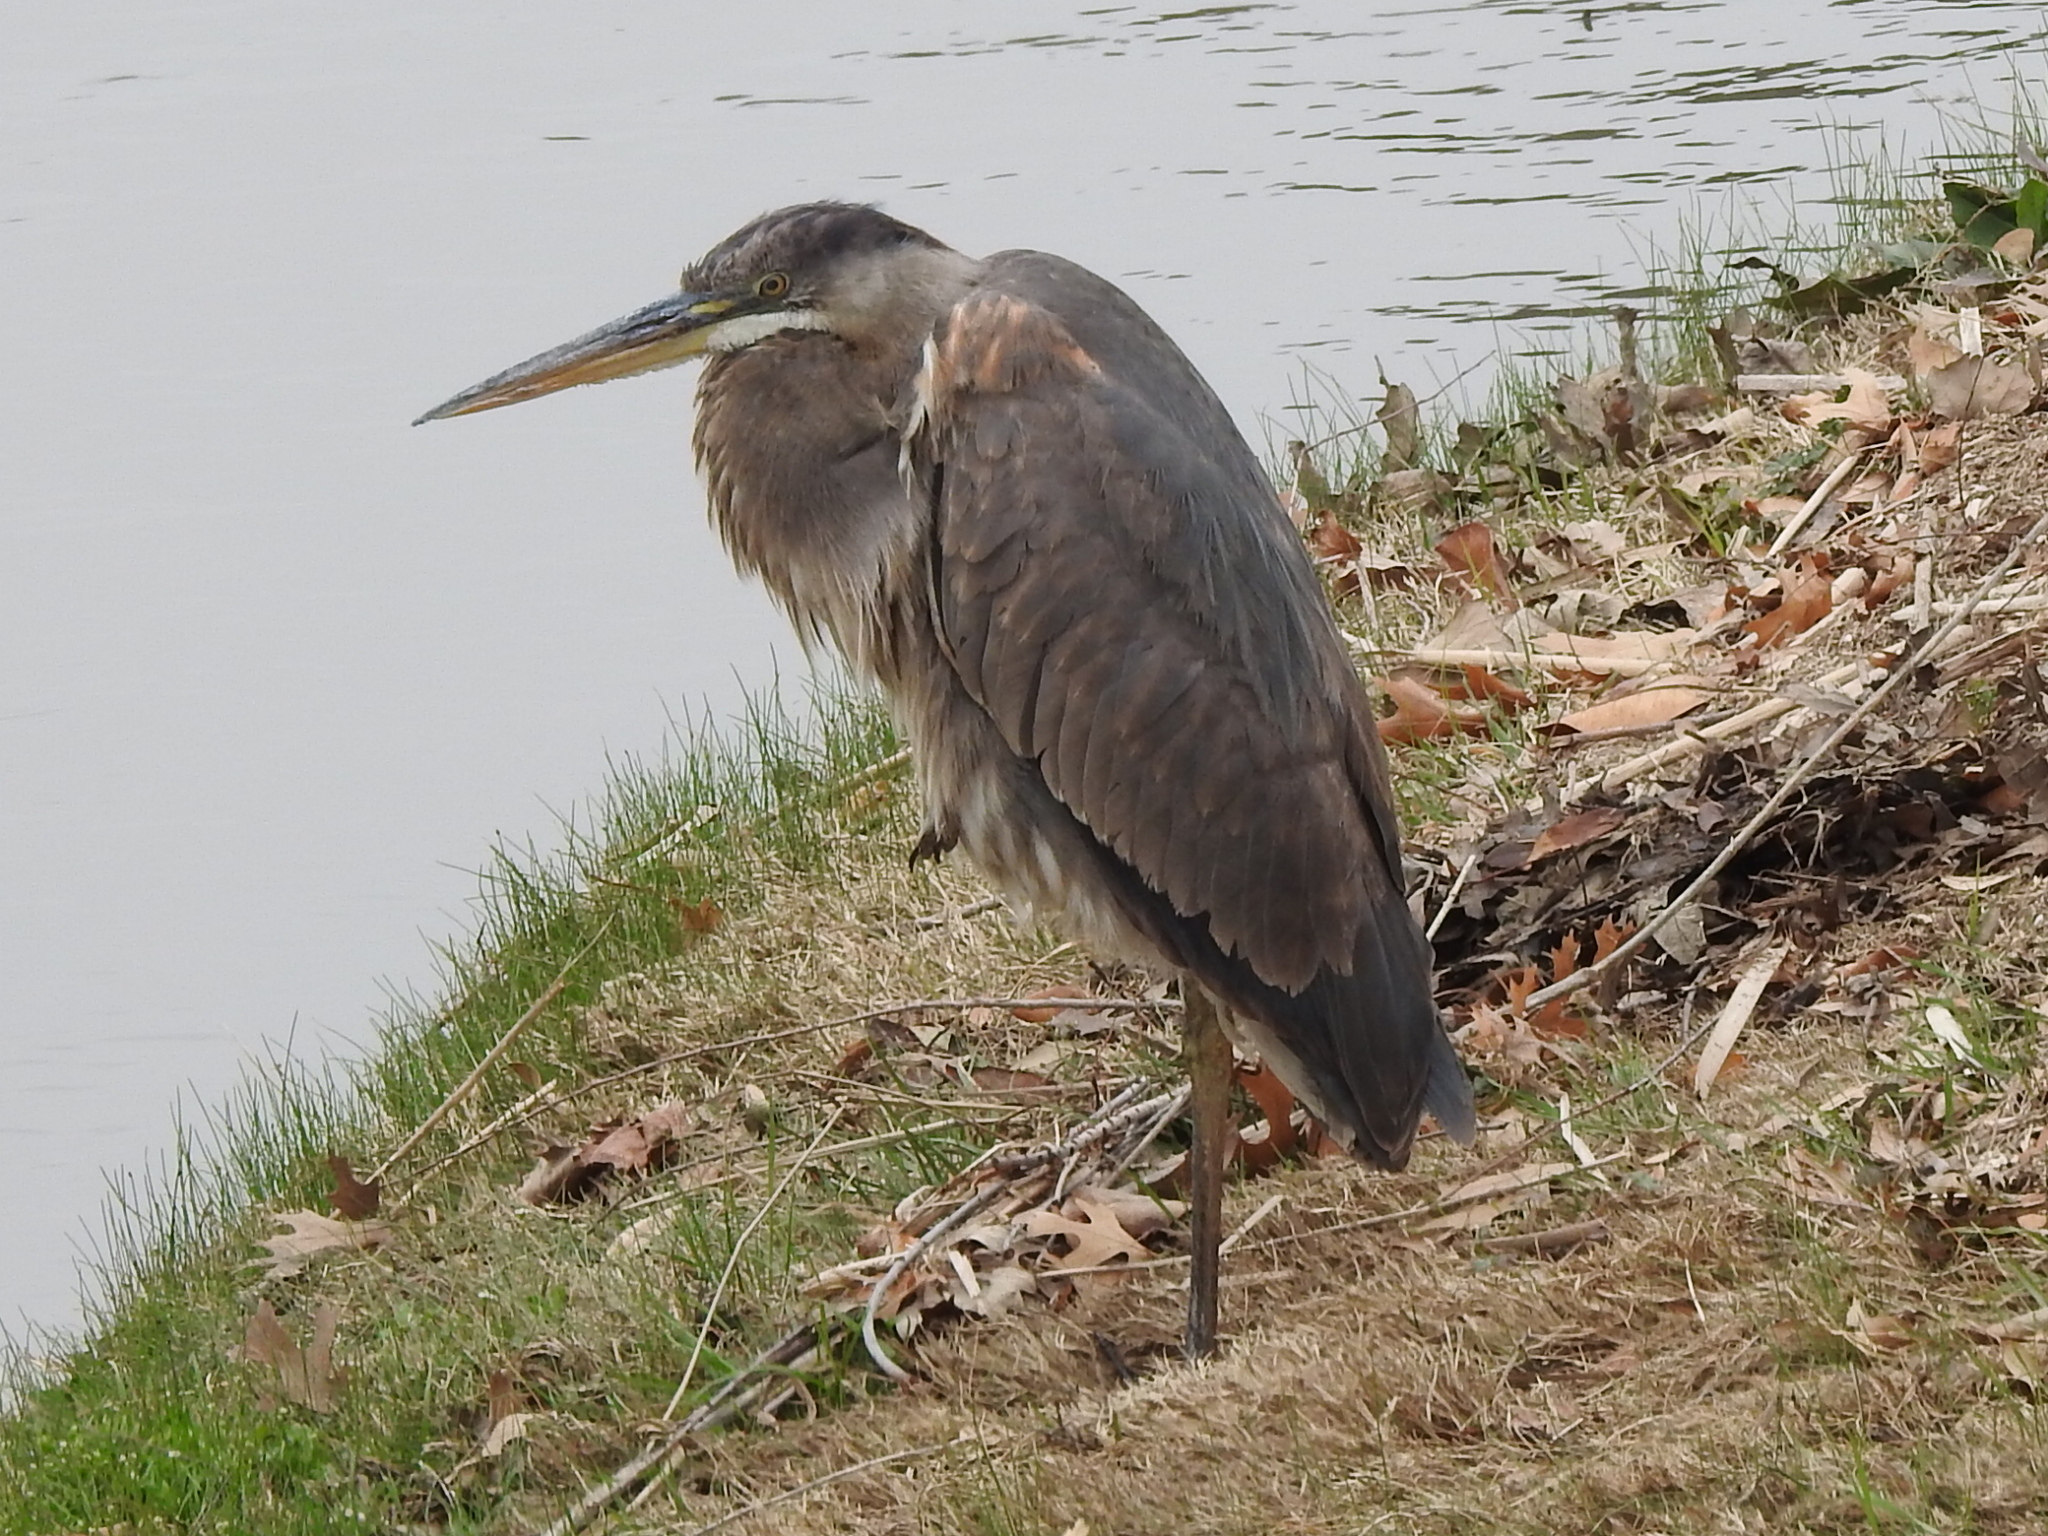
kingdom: Animalia
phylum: Chordata
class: Aves
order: Pelecaniformes
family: Ardeidae
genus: Ardea
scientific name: Ardea herodias
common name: Great blue heron
